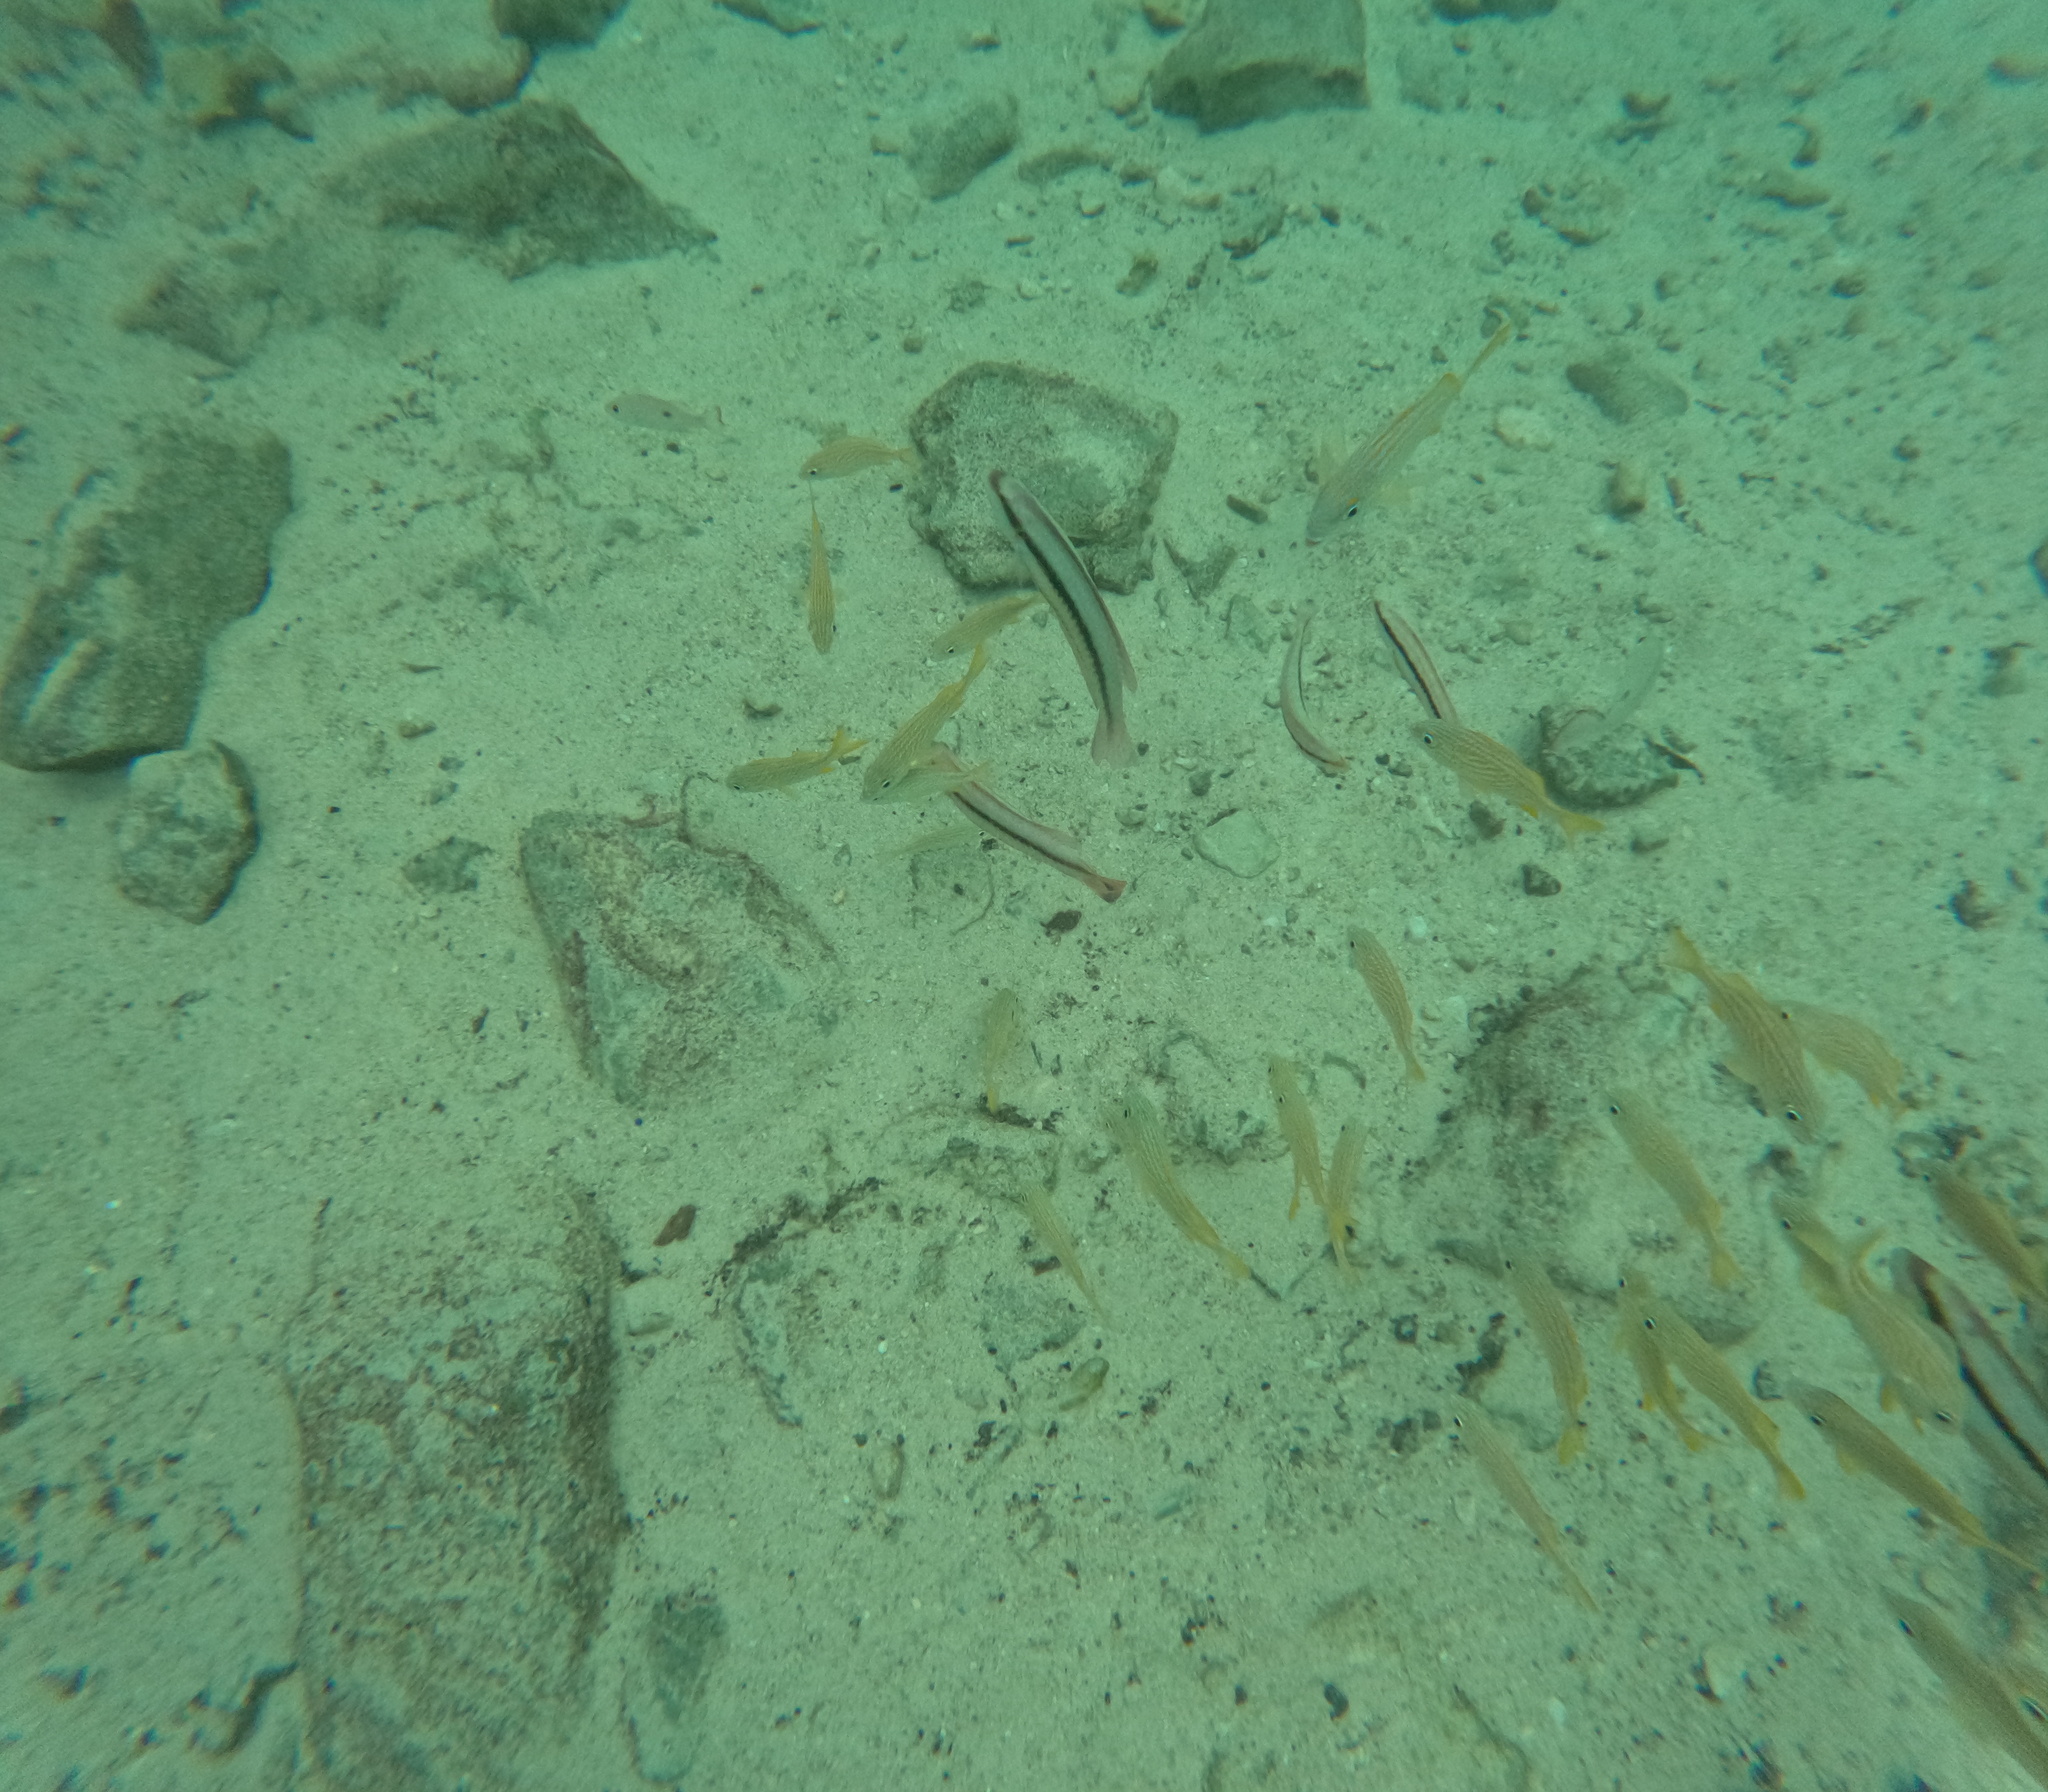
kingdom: Animalia
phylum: Chordata
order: Perciformes
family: Labridae
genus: Halichoeres
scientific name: Halichoeres bivittatus
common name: Slippery dick
